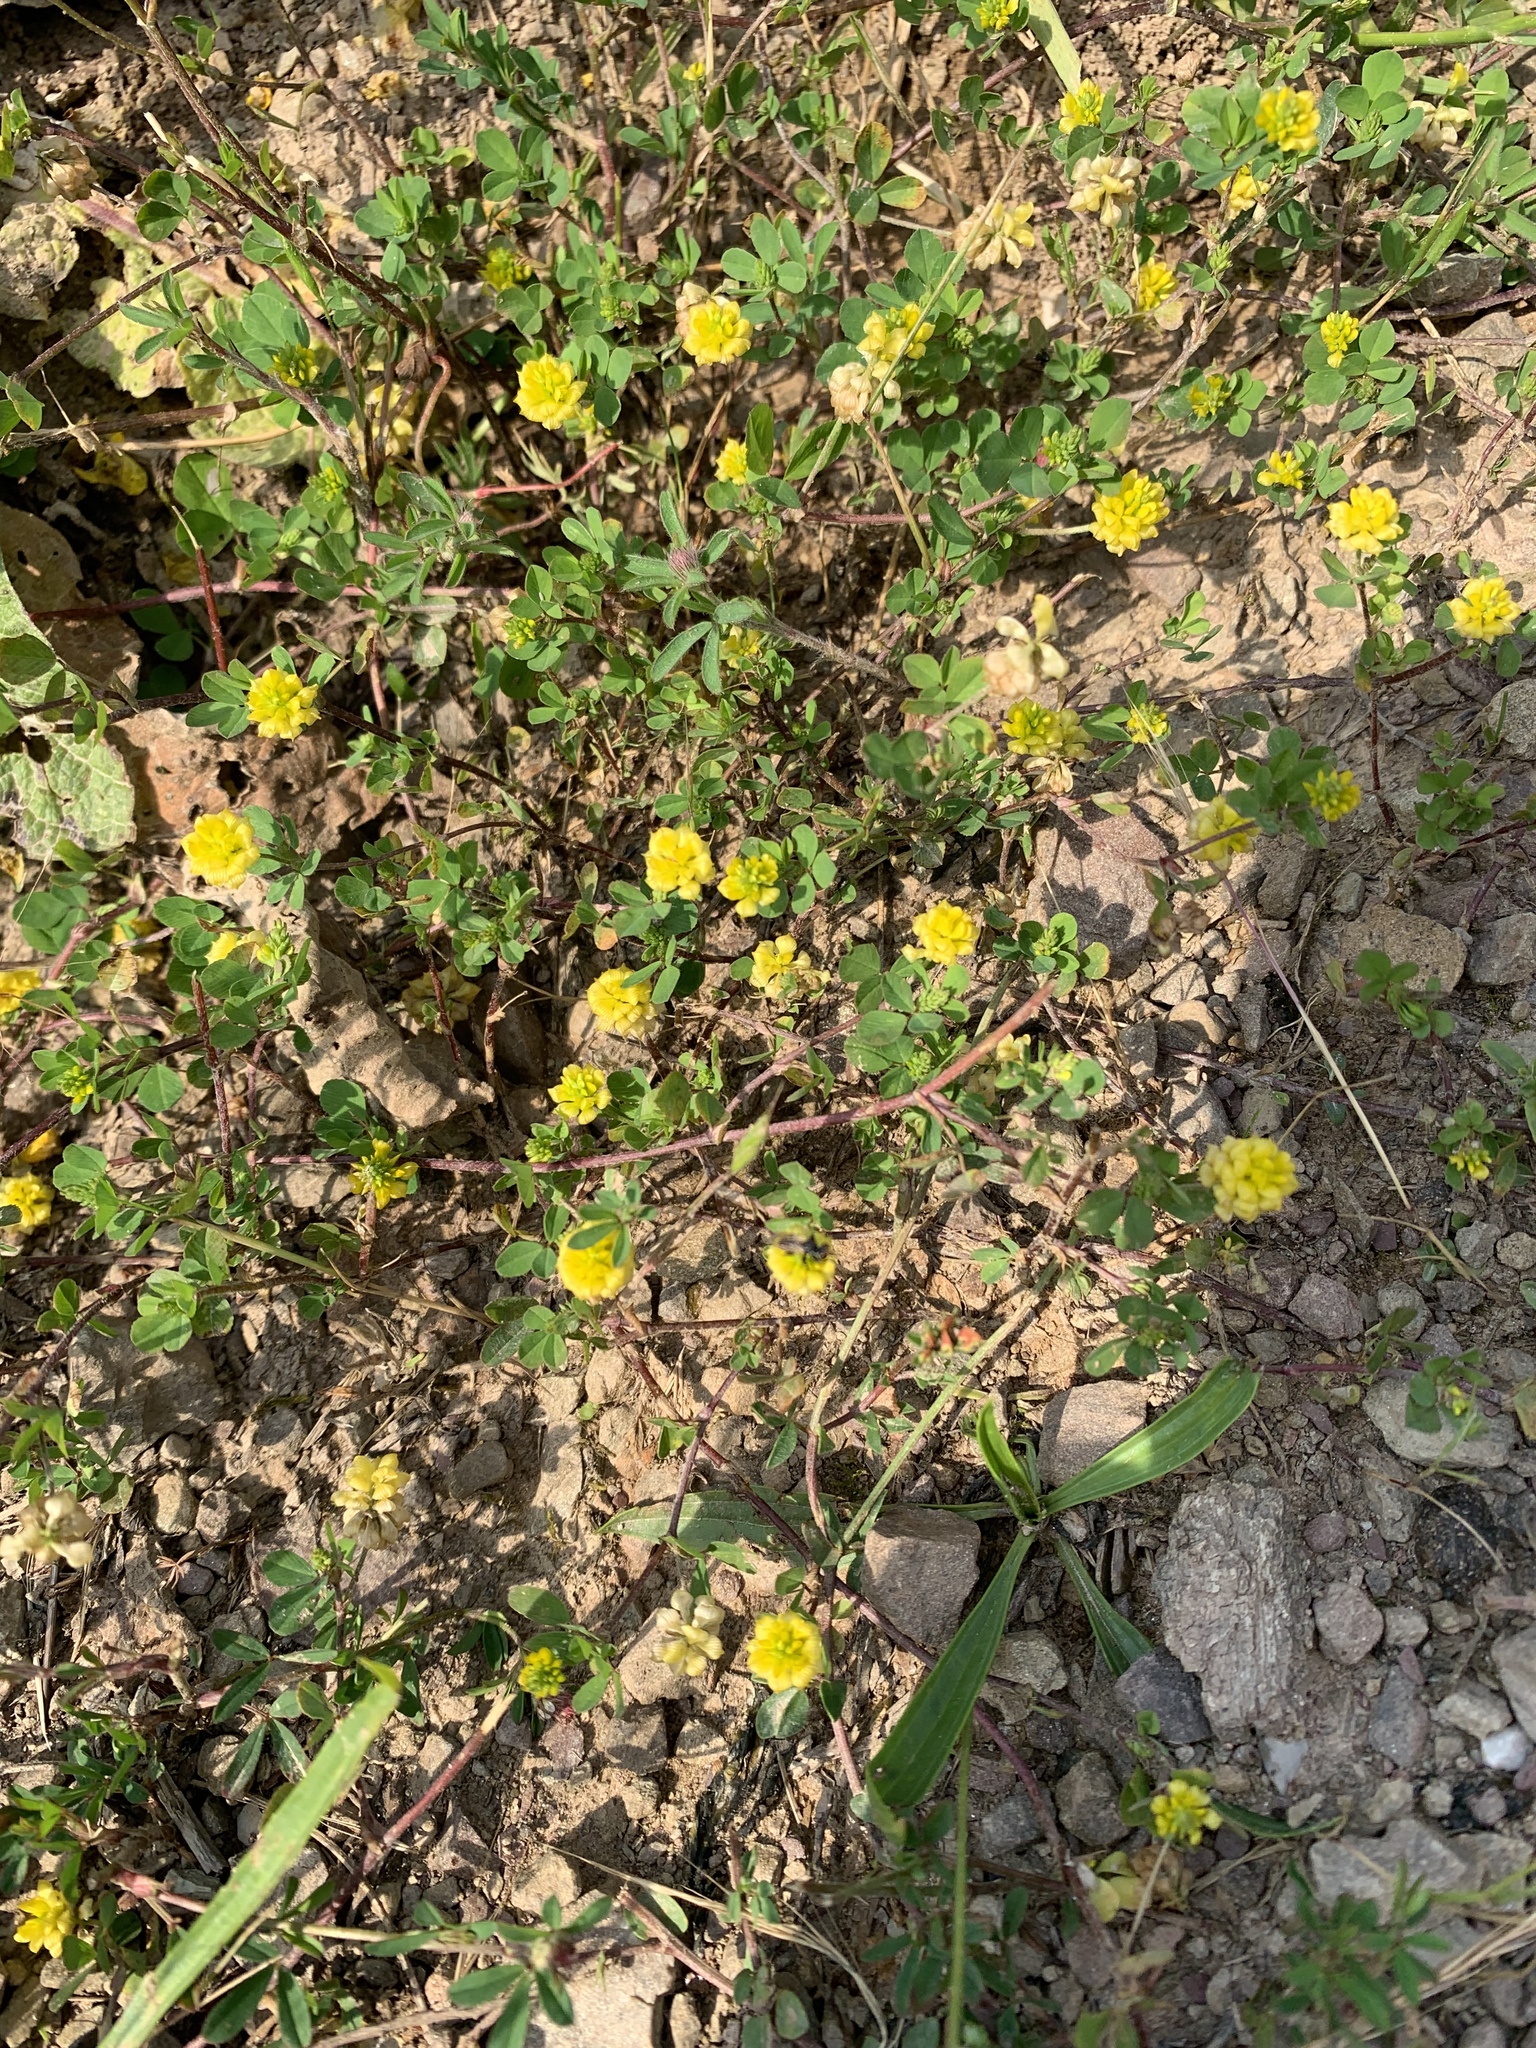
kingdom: Plantae
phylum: Tracheophyta
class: Magnoliopsida
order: Fabales
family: Fabaceae
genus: Trifolium
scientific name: Trifolium campestre
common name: Field clover
